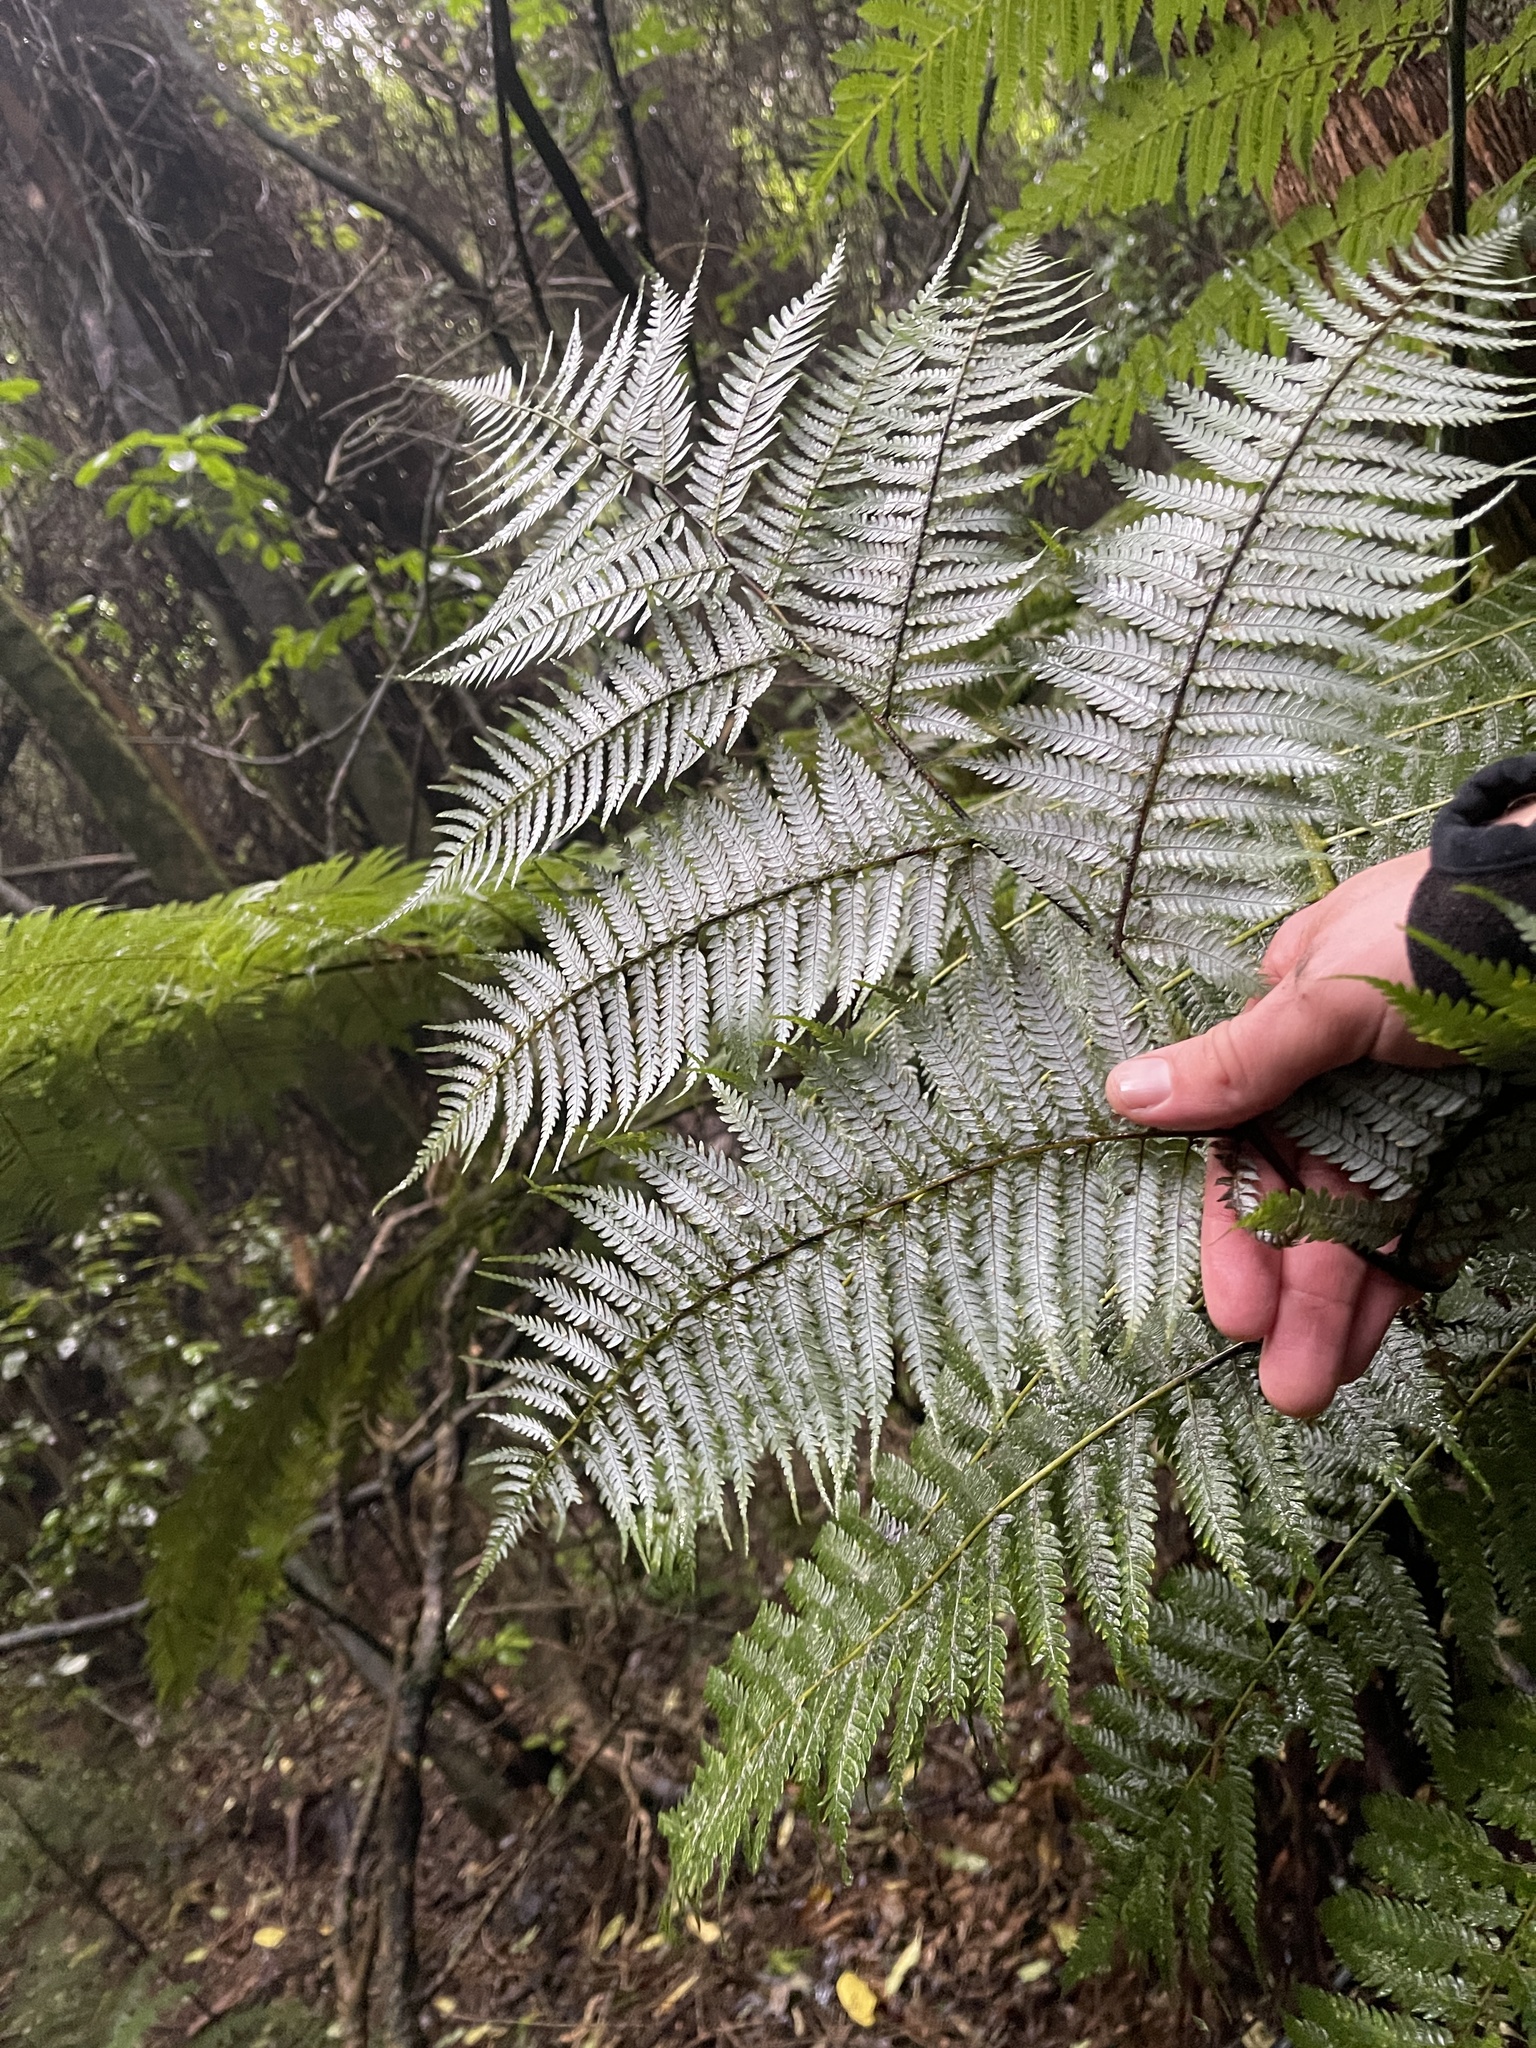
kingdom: Plantae
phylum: Tracheophyta
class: Polypodiopsida
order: Cyatheales
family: Cyatheaceae
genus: Alsophila
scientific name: Alsophila dealbata
